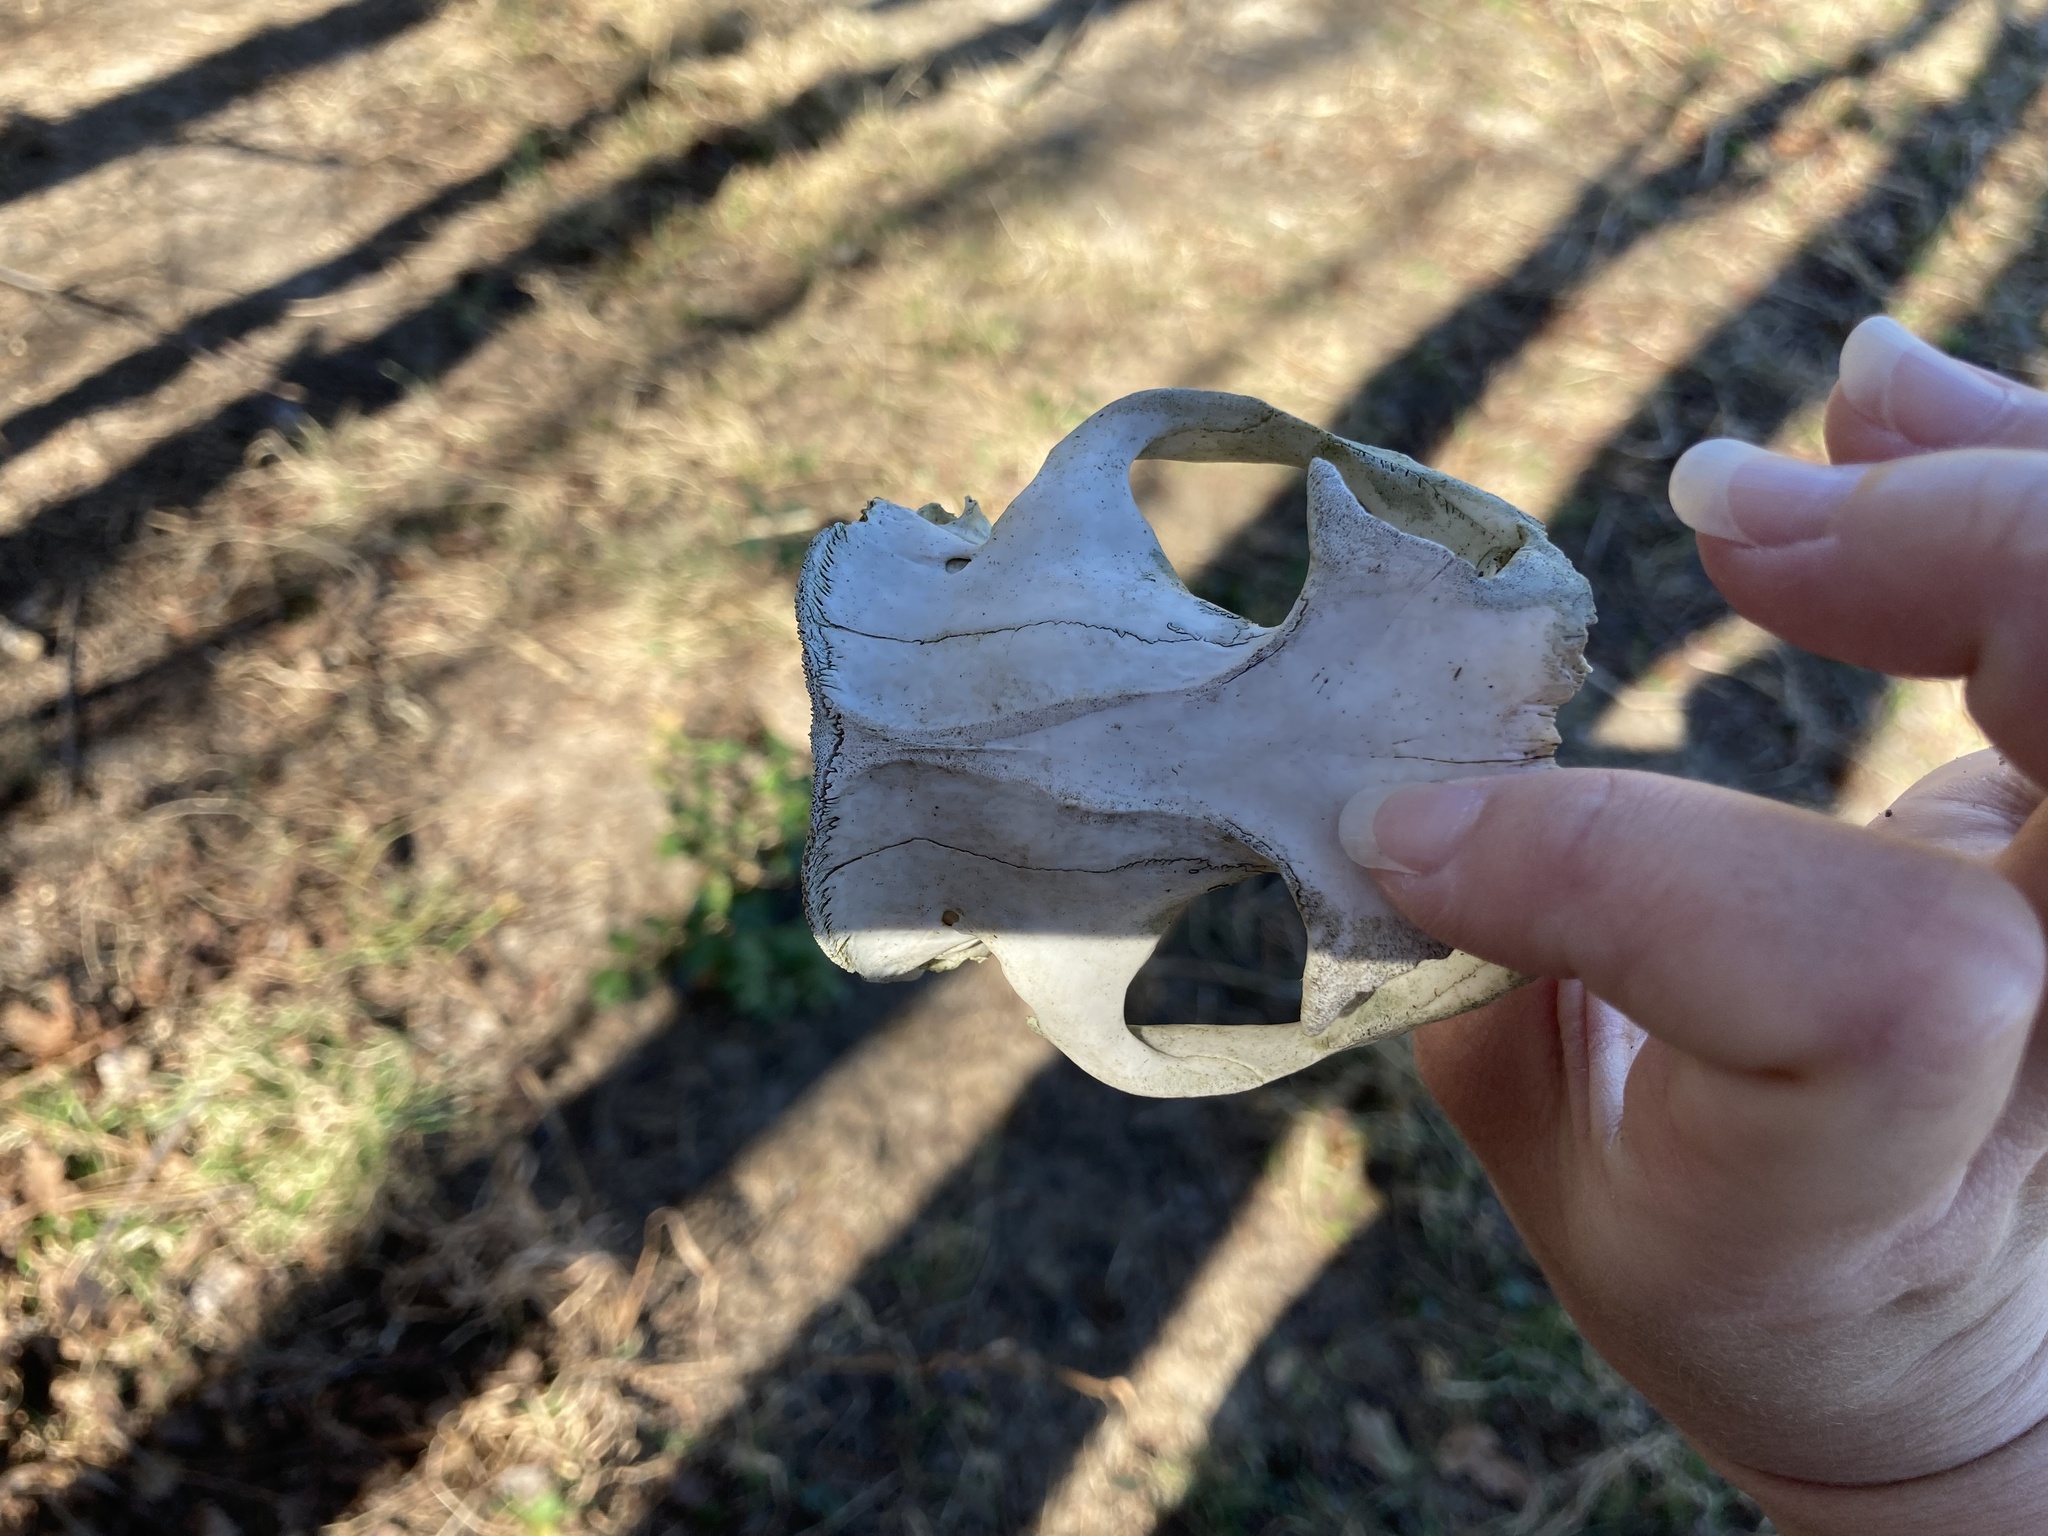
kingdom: Animalia
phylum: Chordata
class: Mammalia
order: Rodentia
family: Sciuridae
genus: Marmota
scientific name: Marmota monax
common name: Groundhog
